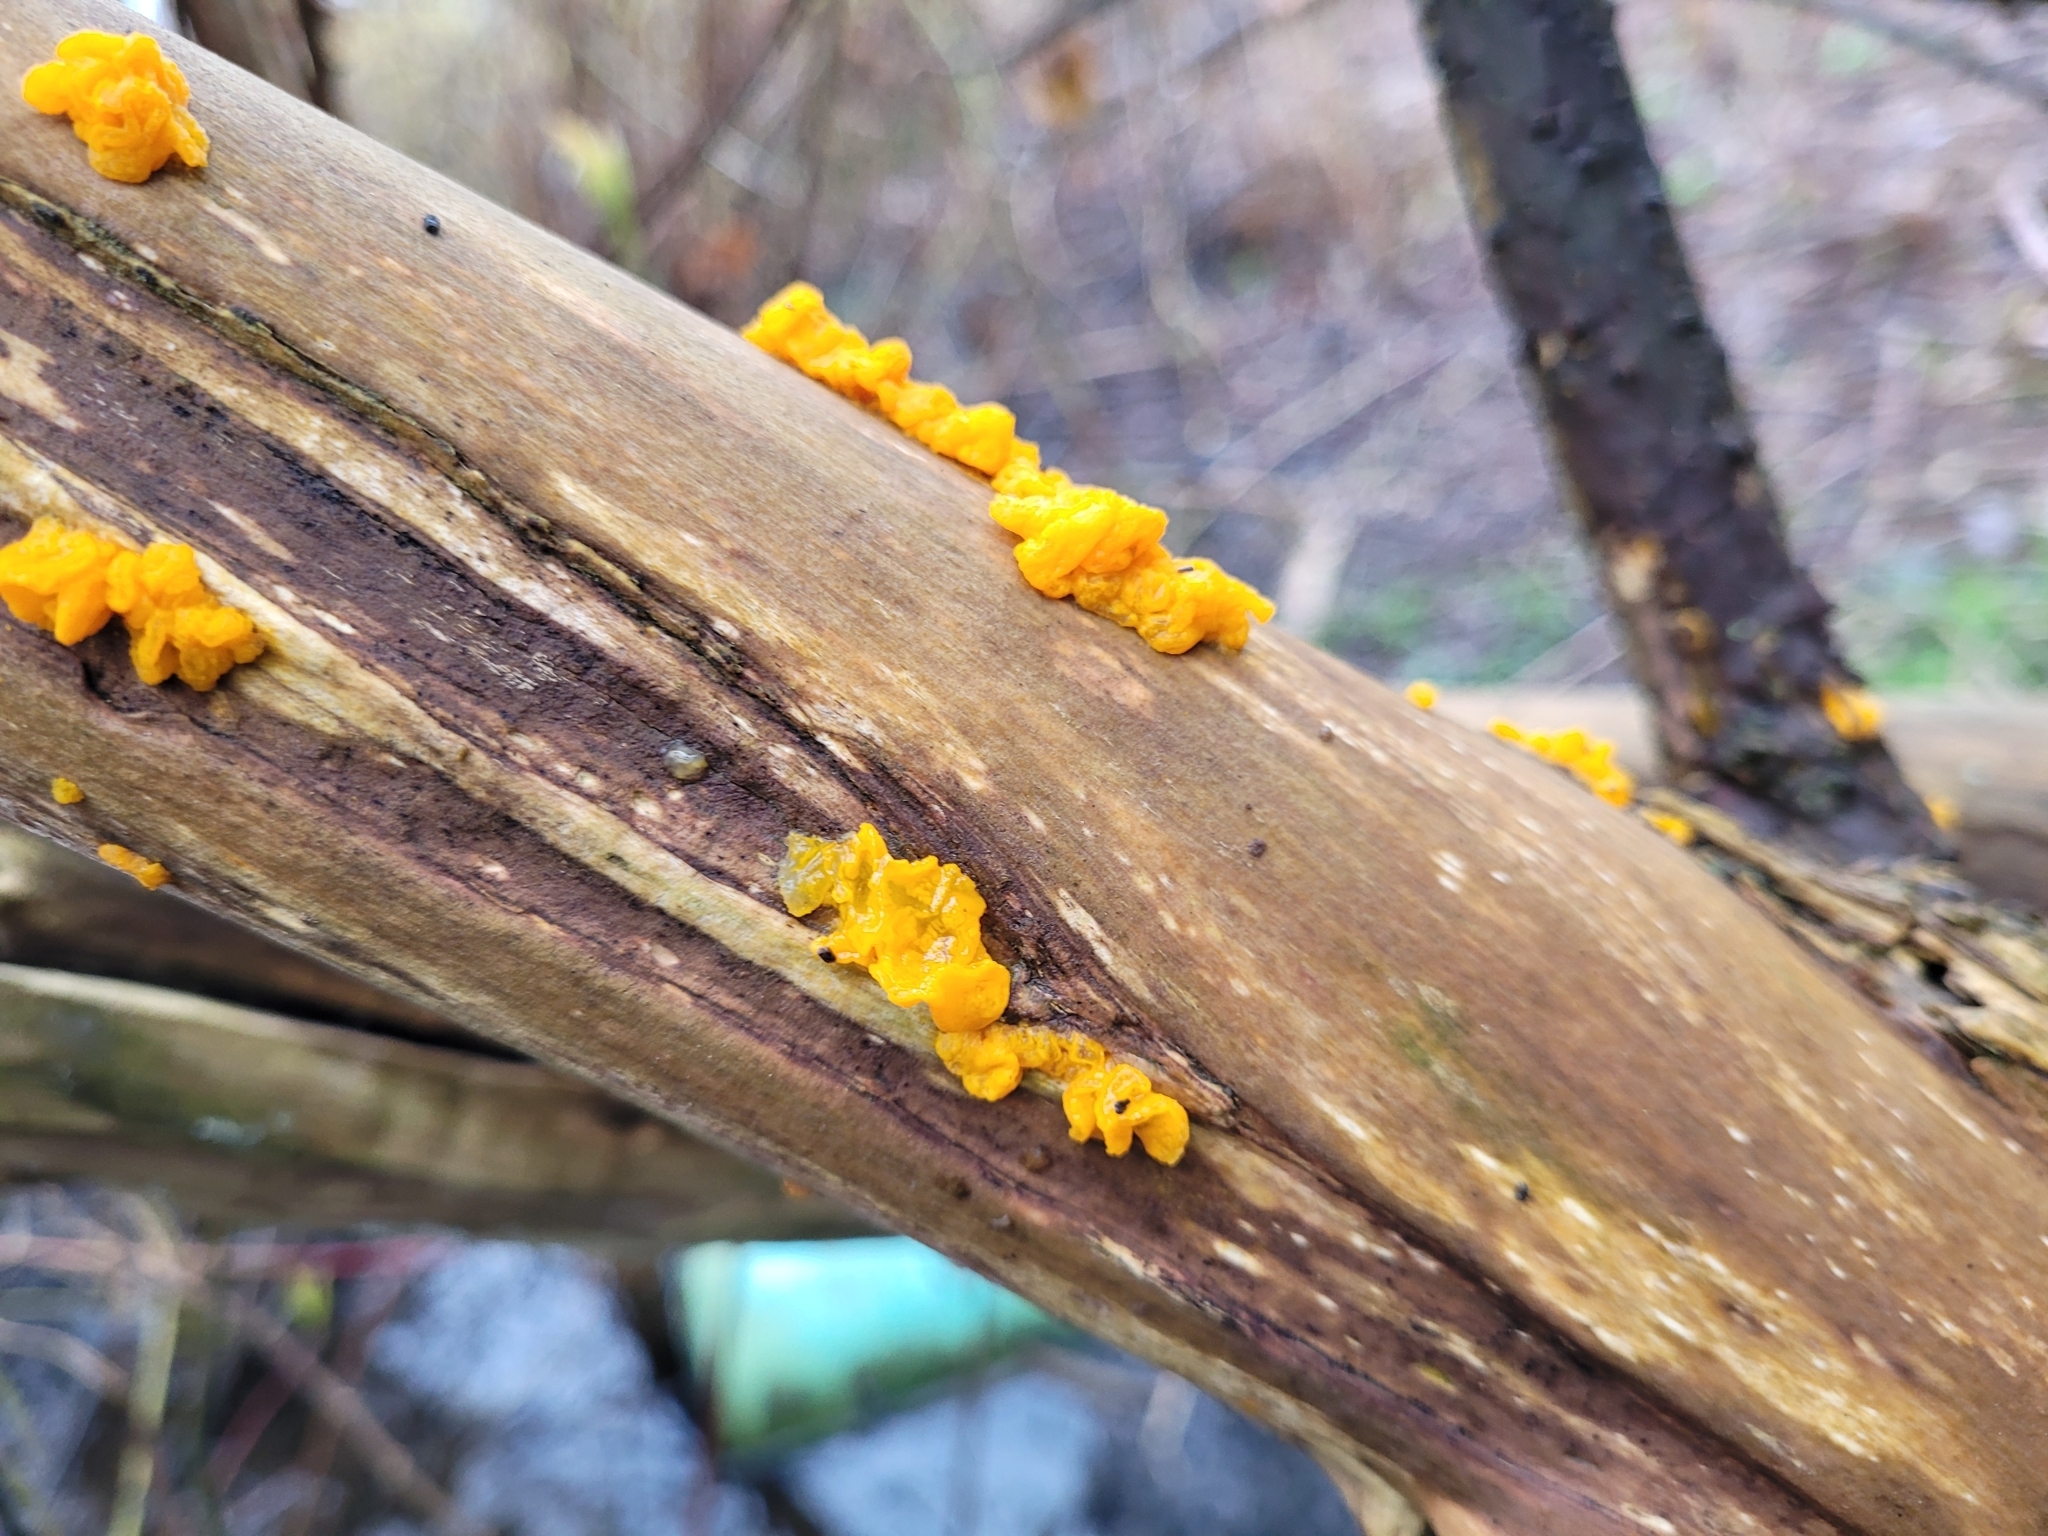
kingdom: Fungi
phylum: Basidiomycota
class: Tremellomycetes
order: Tremellales
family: Tremellaceae
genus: Tremella
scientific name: Tremella mesenterica
